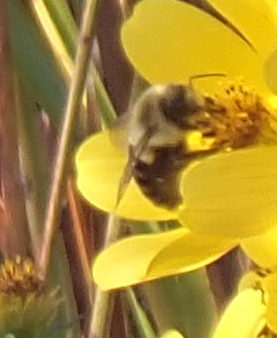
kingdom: Animalia
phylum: Arthropoda
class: Insecta
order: Hymenoptera
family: Apidae
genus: Bombus
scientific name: Bombus impatiens
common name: Common eastern bumble bee
